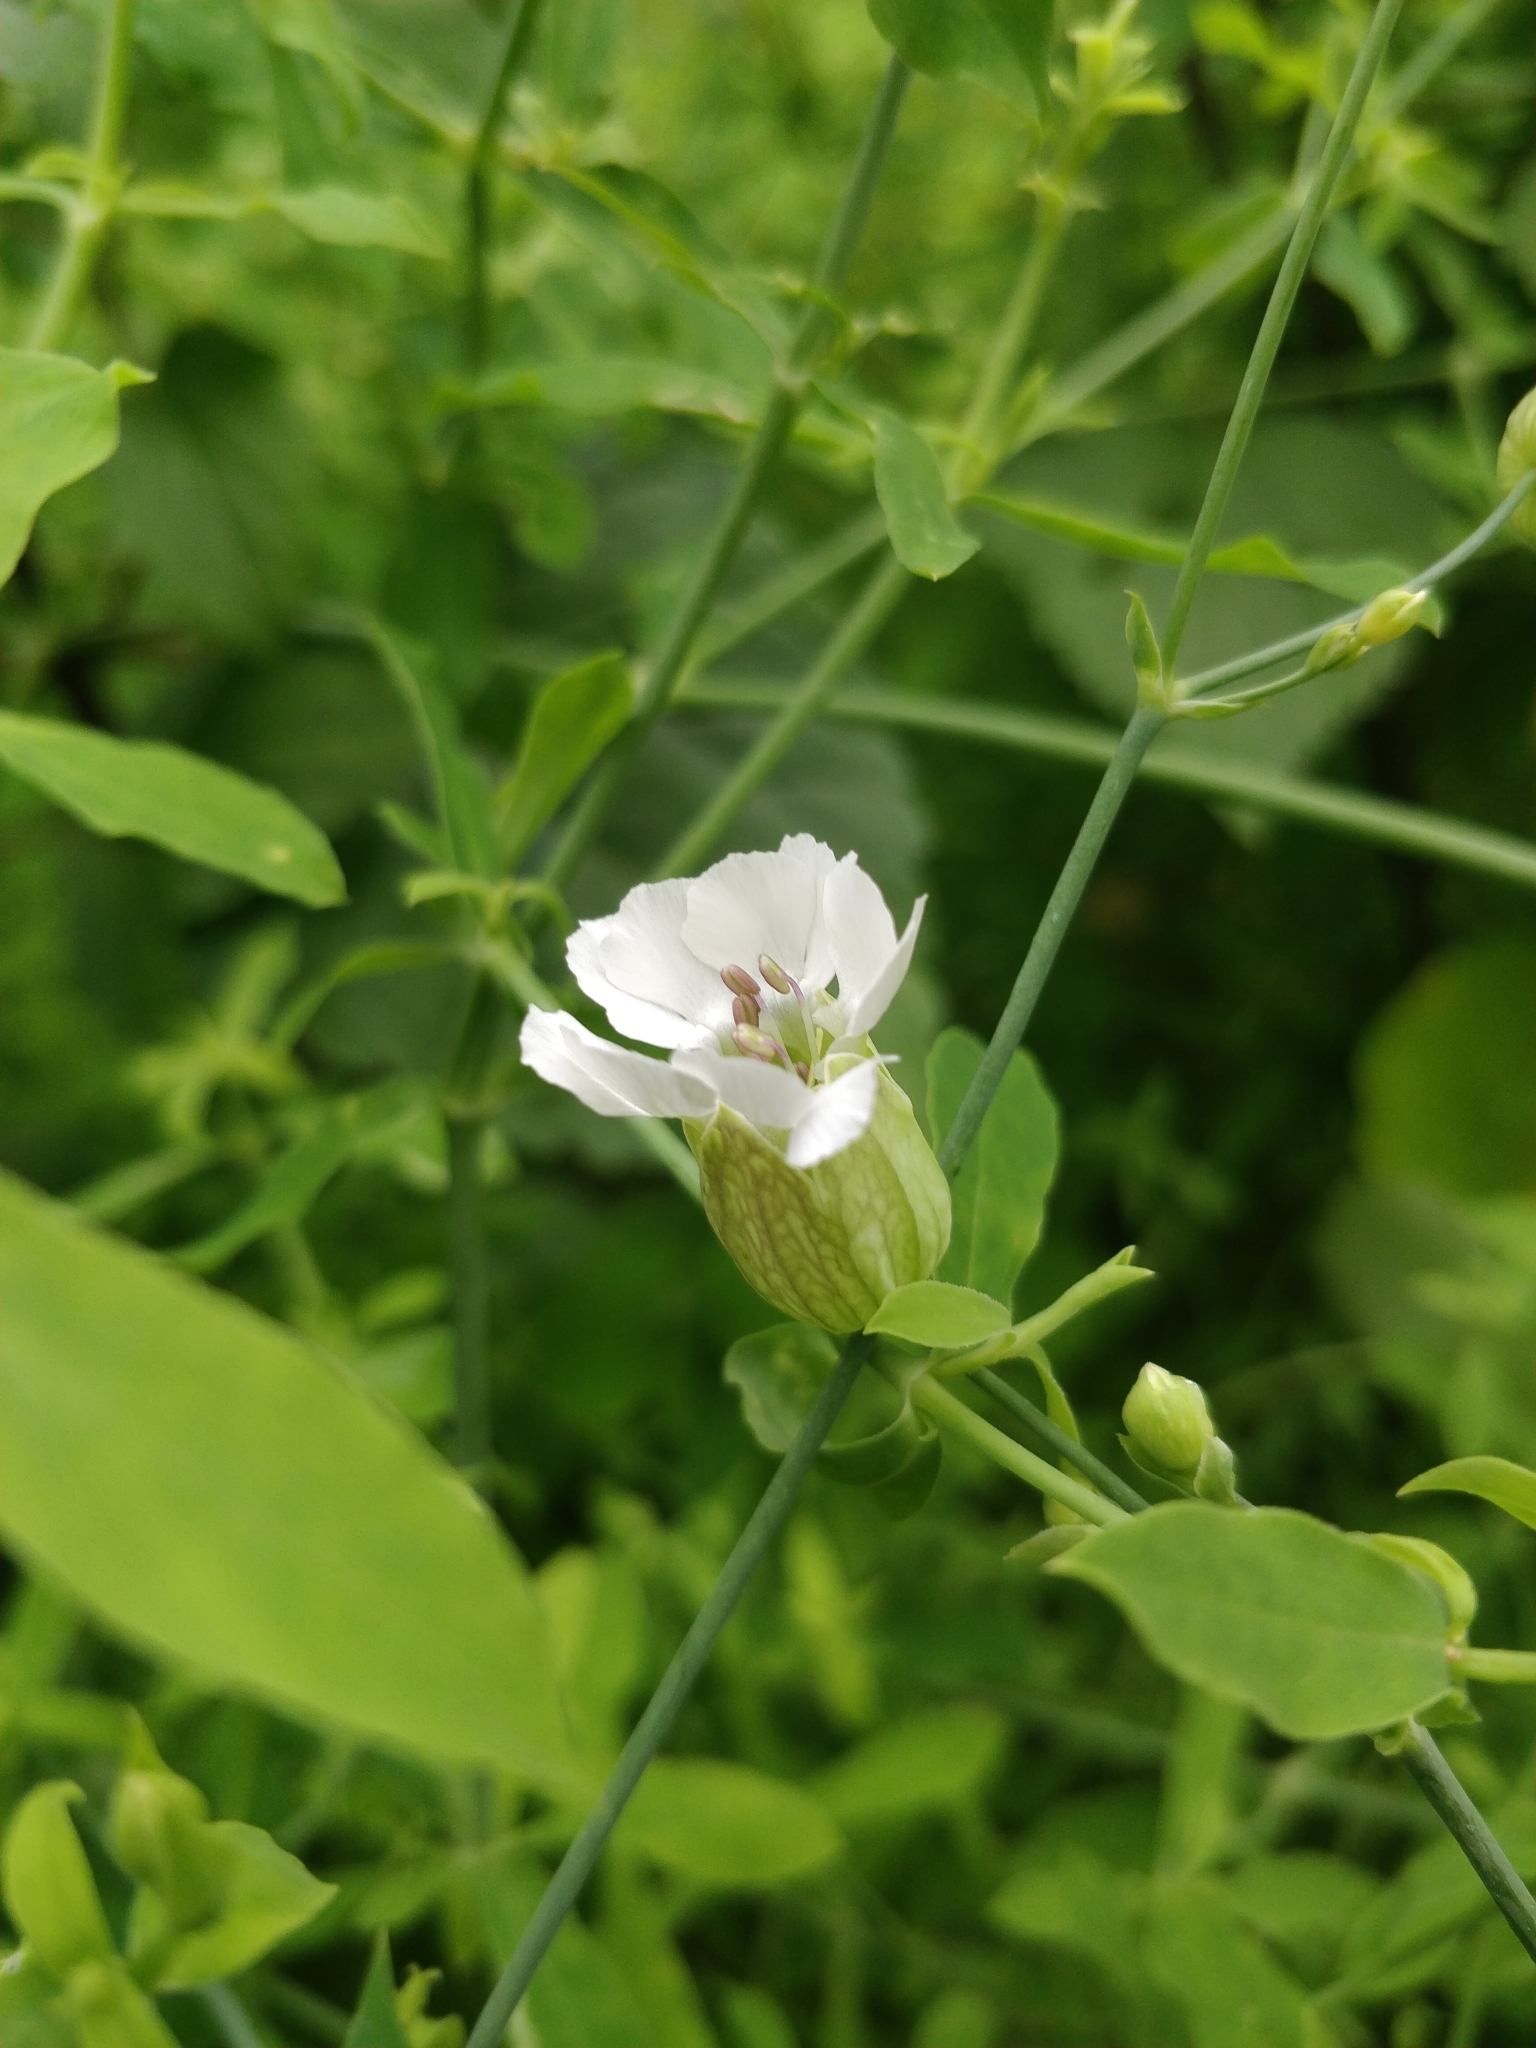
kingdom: Plantae
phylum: Tracheophyta
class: Magnoliopsida
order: Caryophyllales
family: Caryophyllaceae
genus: Silene
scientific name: Silene uniflora
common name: Sea campion
